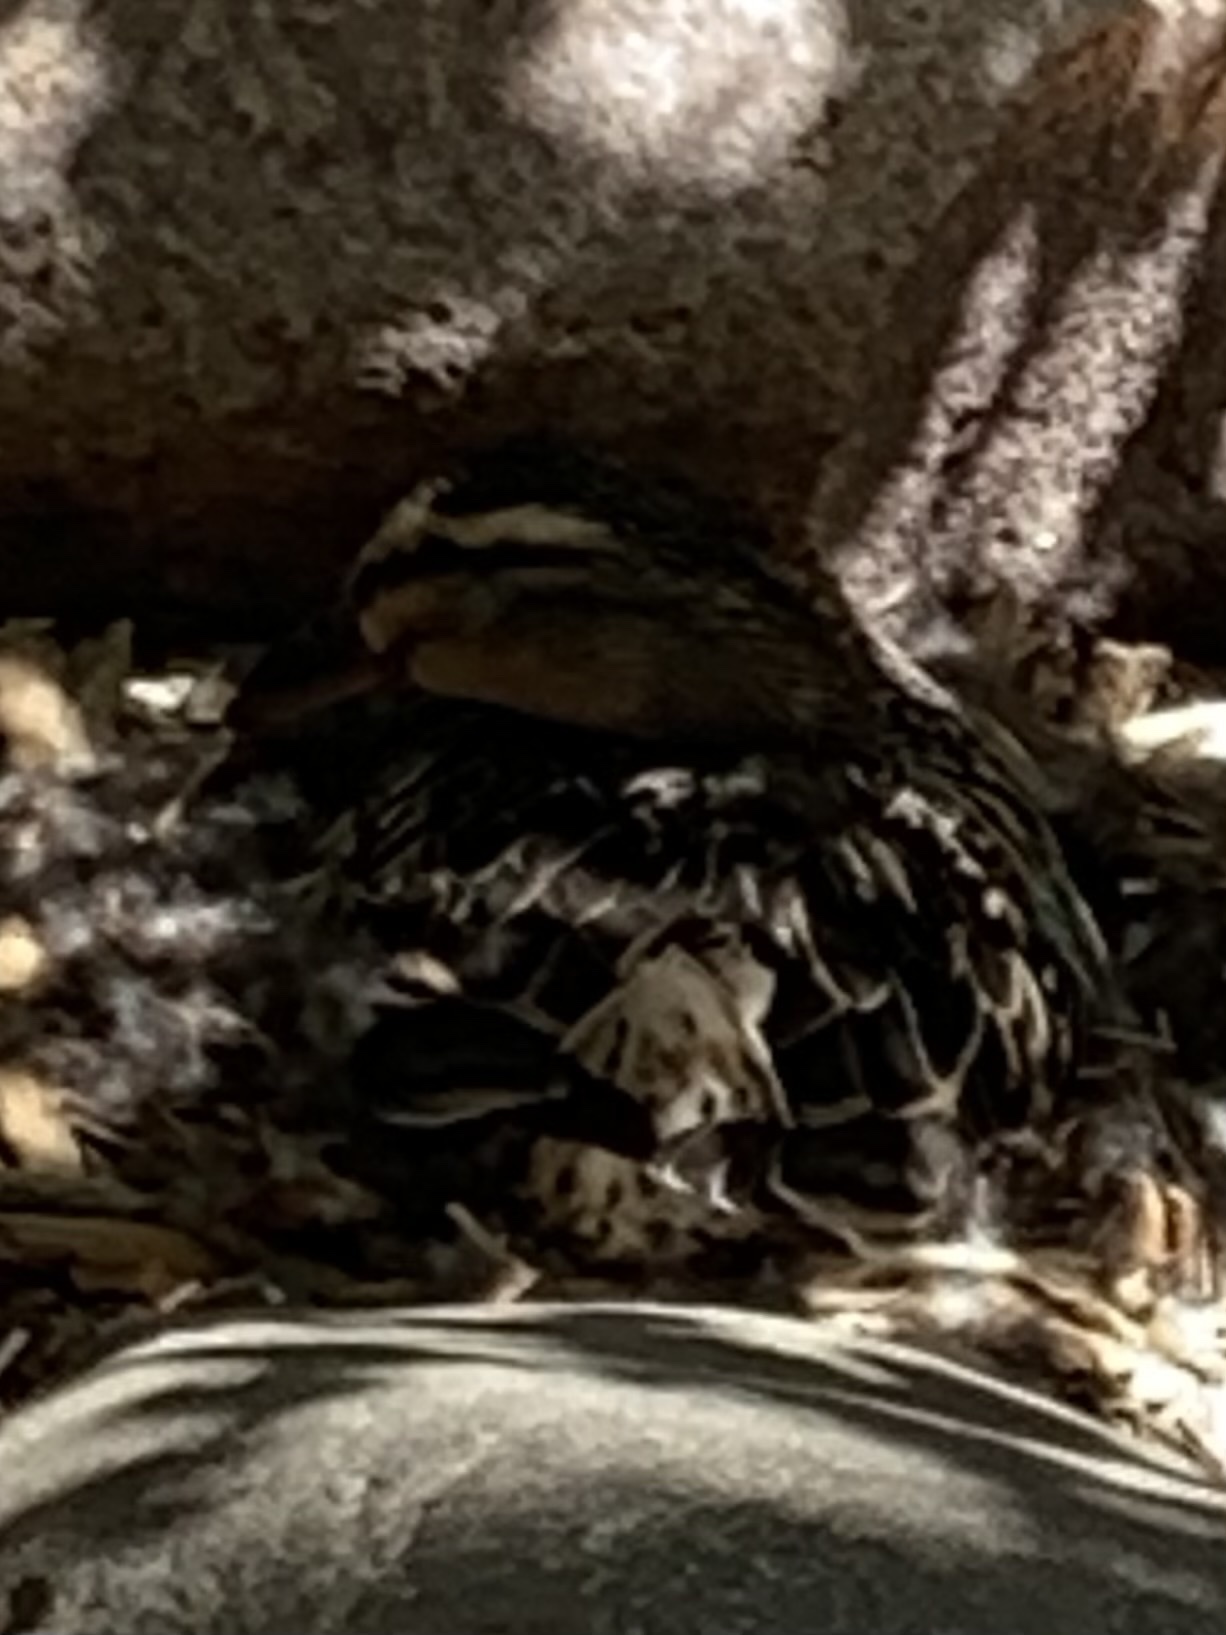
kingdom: Animalia
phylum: Chordata
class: Aves
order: Anseriformes
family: Anatidae
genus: Anas
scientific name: Anas platyrhynchos
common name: Mallard
